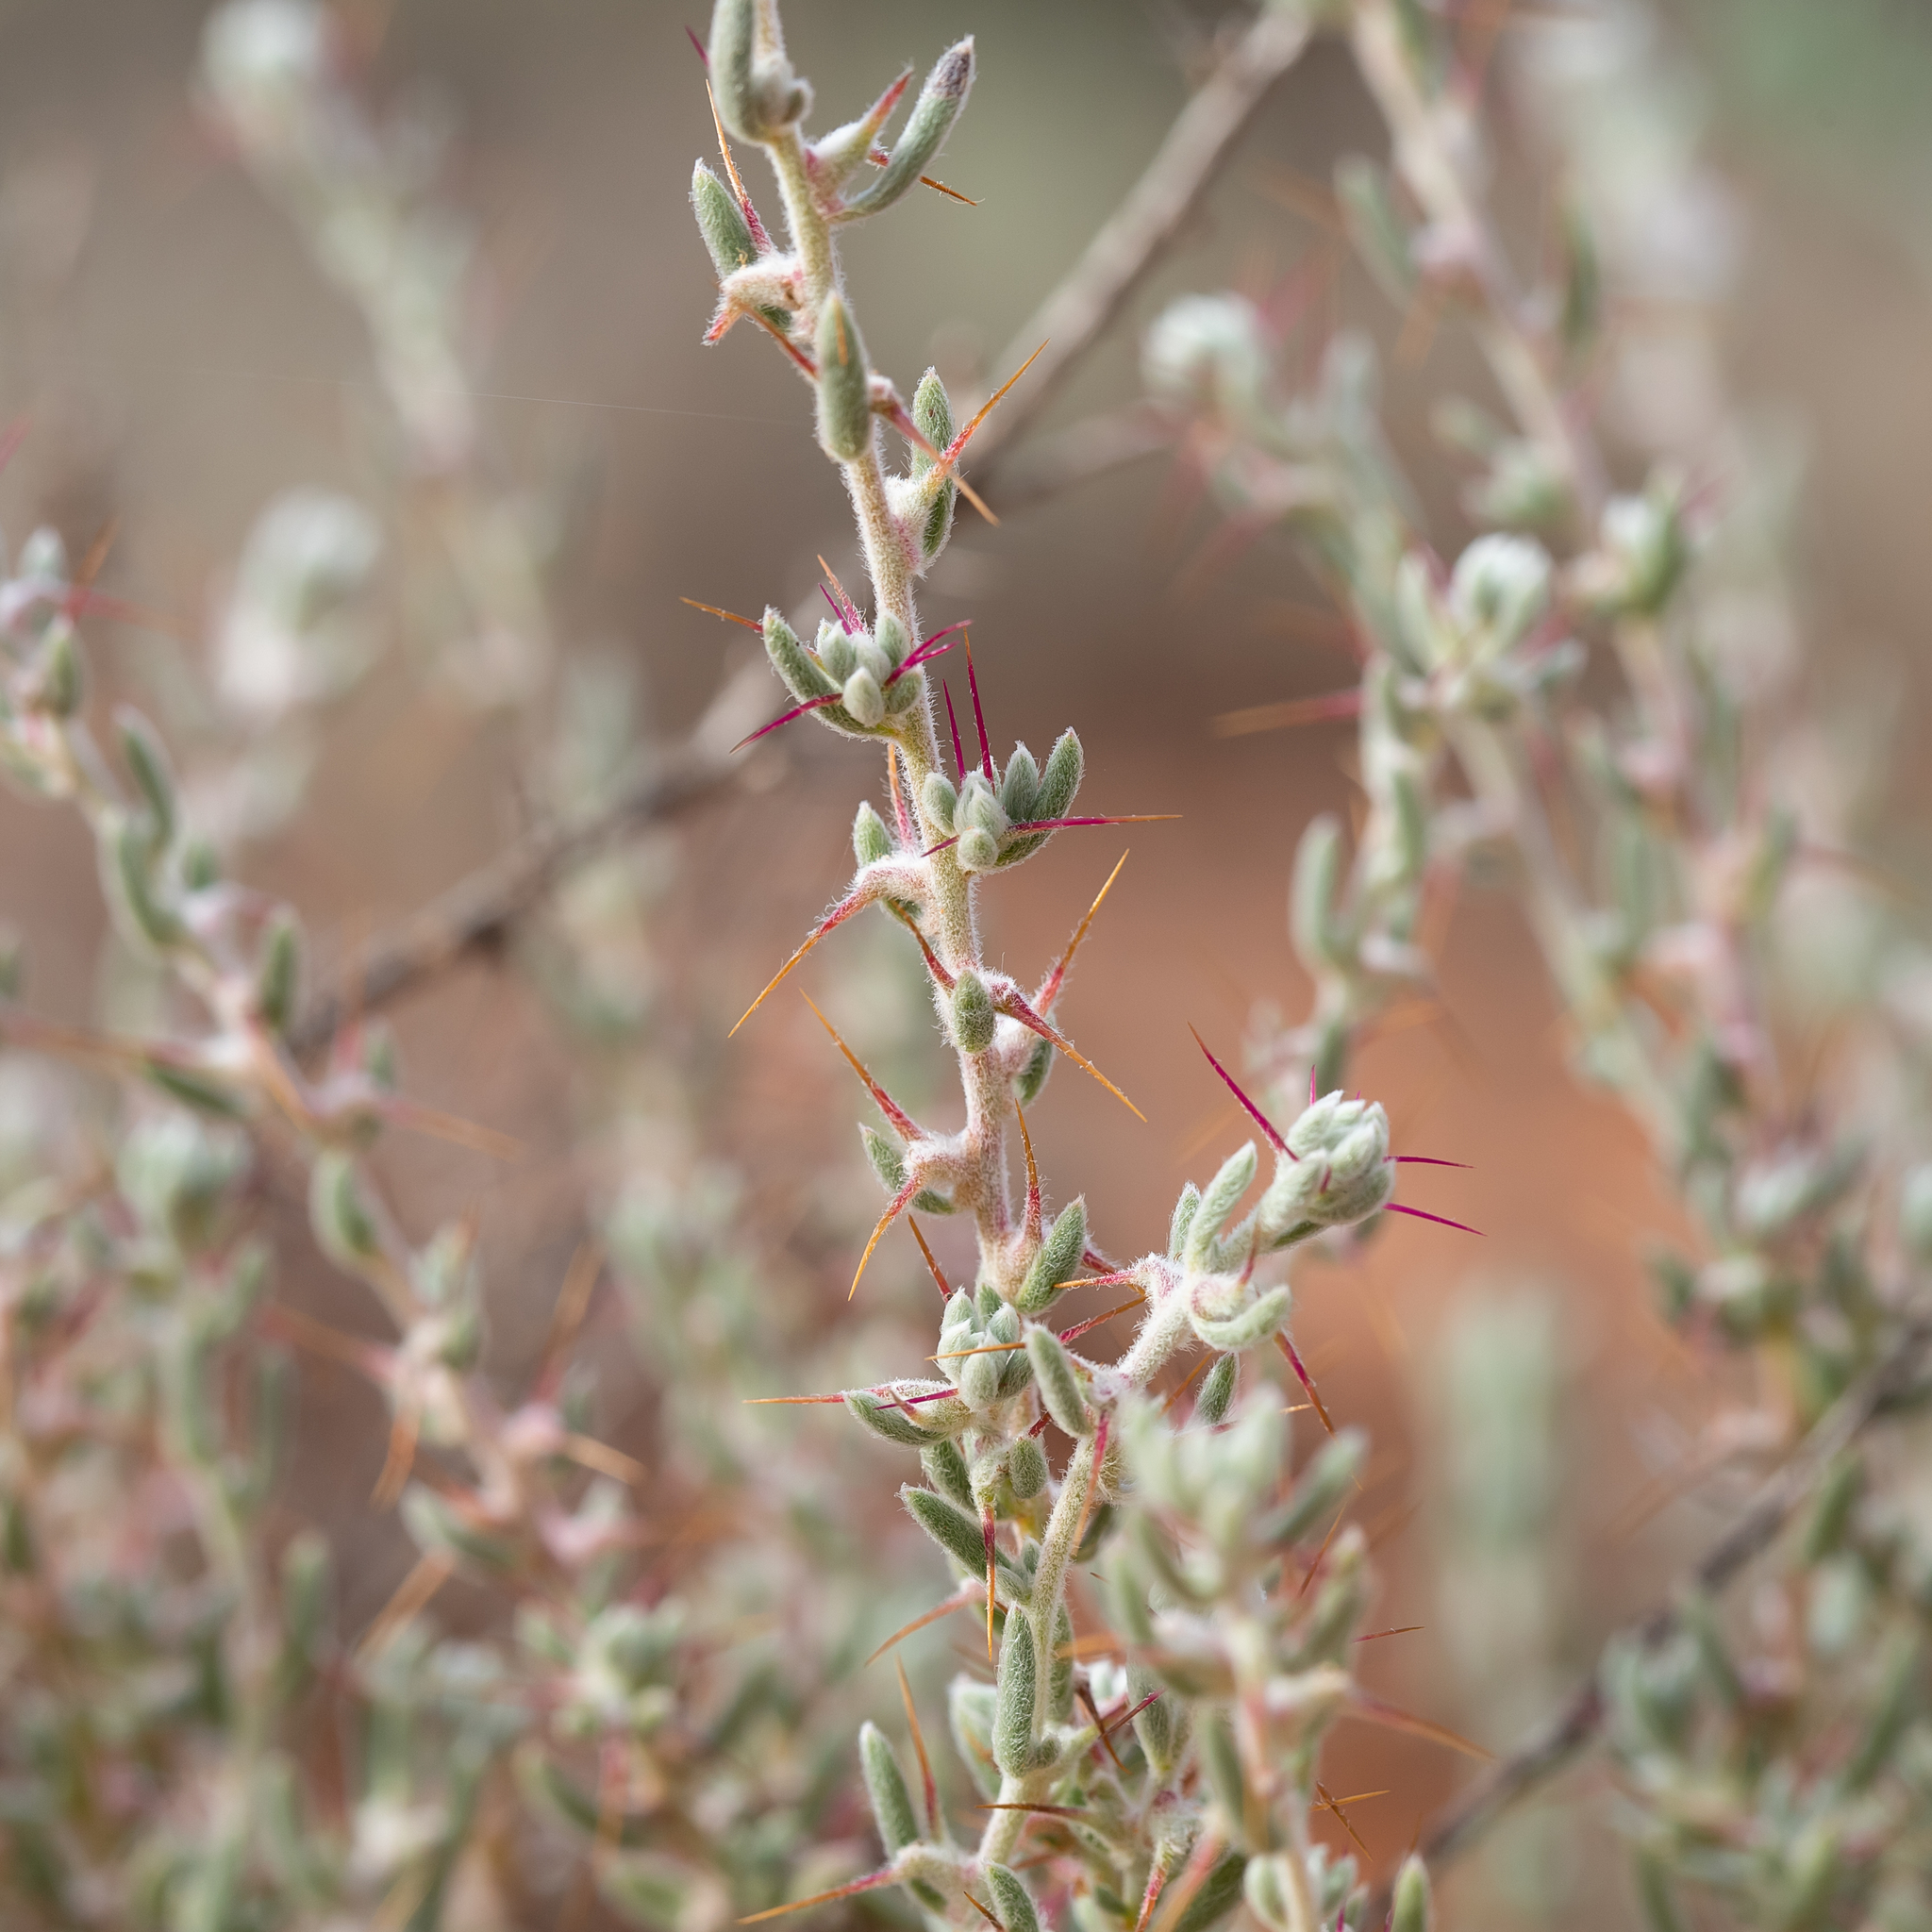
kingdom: Plantae
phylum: Tracheophyta
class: Magnoliopsida
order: Caryophyllales
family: Amaranthaceae
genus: Sclerolaena
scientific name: Sclerolaena obliquicuspis
